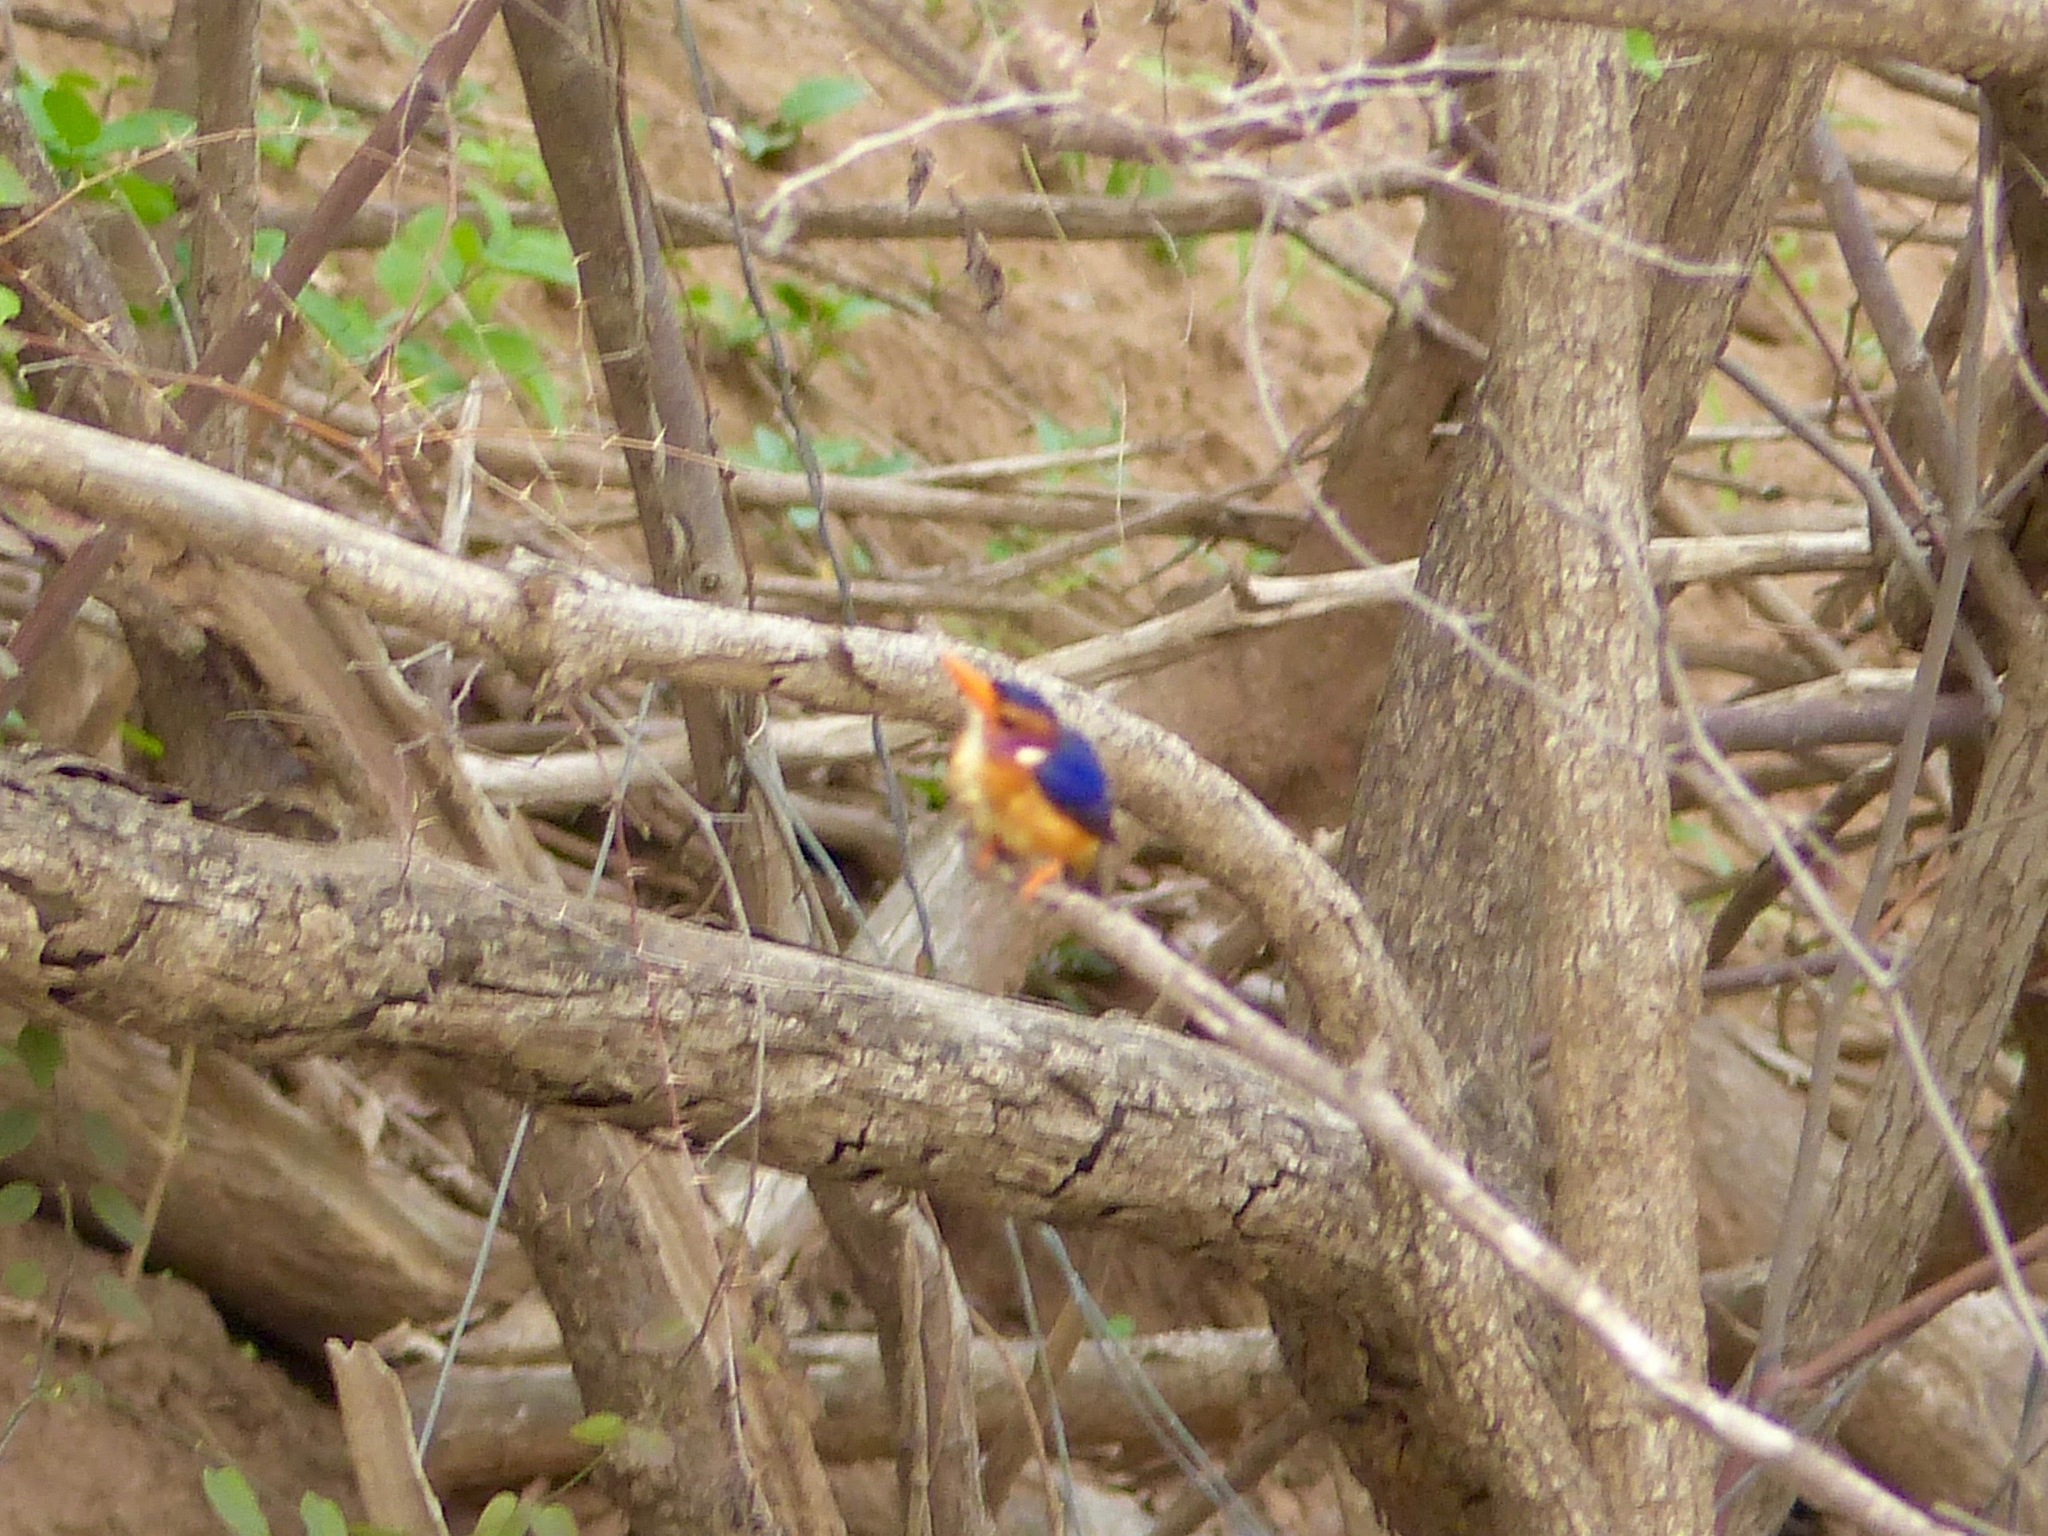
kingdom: Animalia
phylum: Chordata
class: Aves
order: Coraciiformes
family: Alcedinidae
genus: Ispidina
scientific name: Ispidina picta
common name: African pygmy-kingfisher
